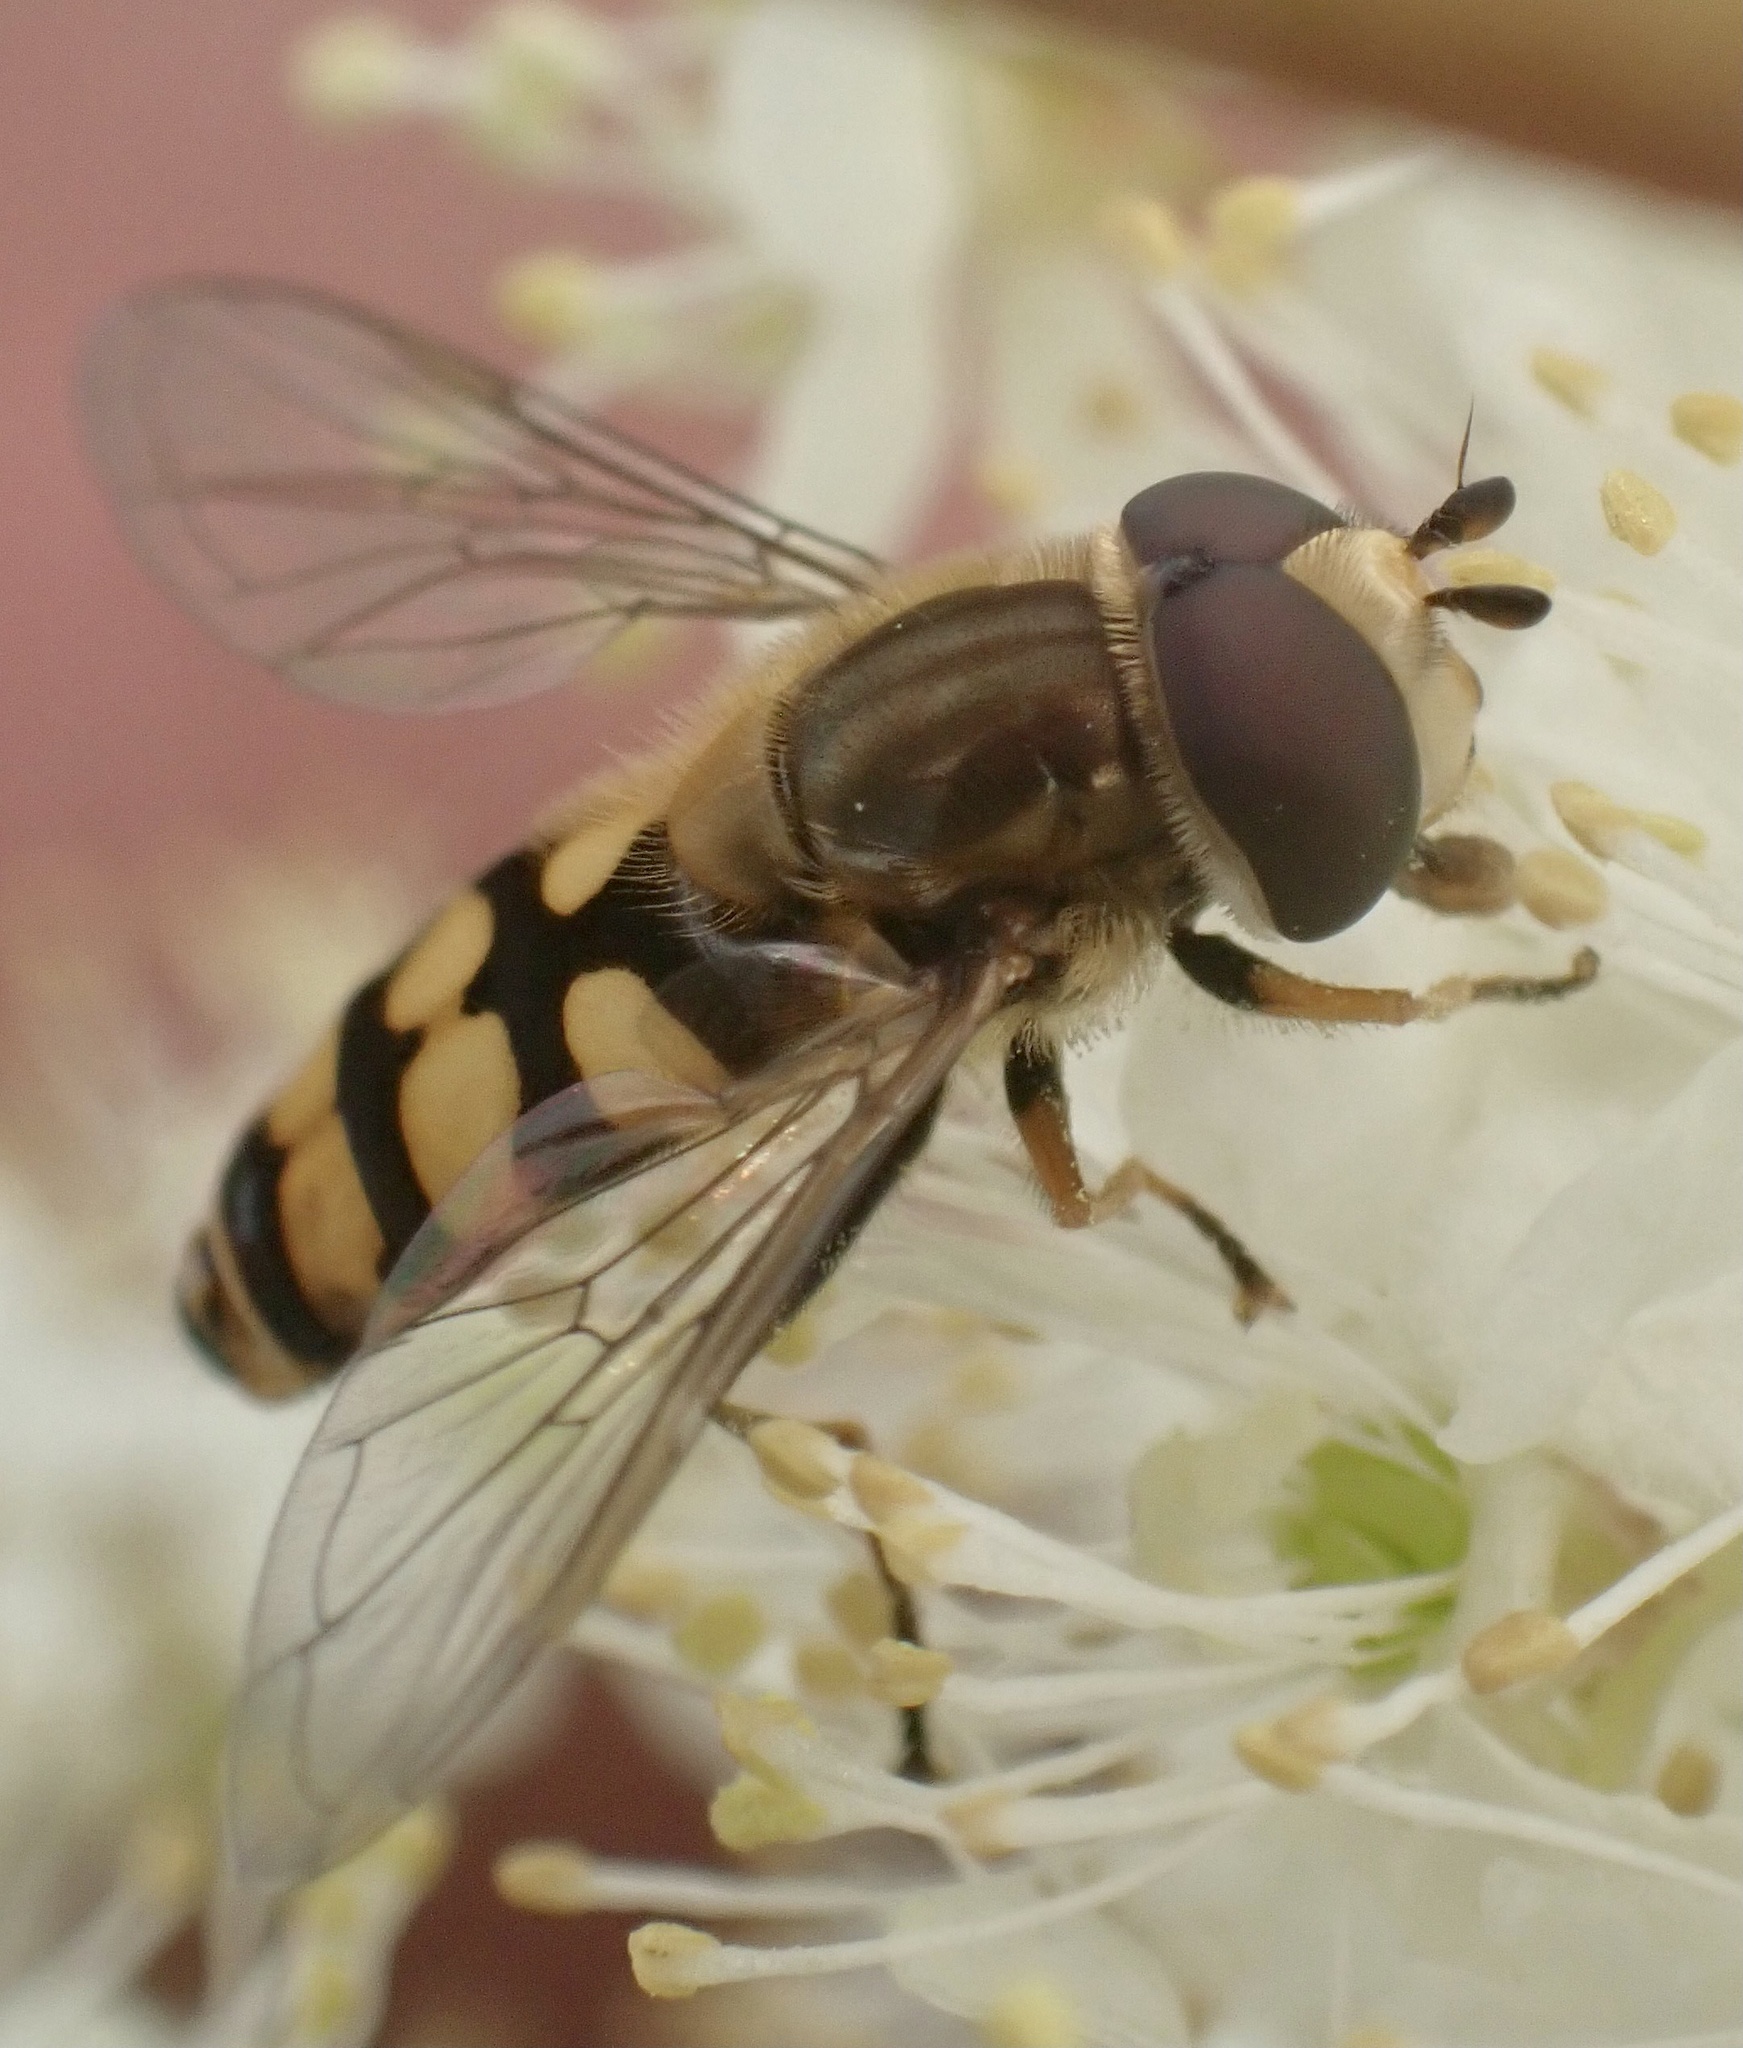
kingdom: Animalia
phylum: Arthropoda
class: Insecta
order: Diptera
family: Syrphidae
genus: Eupeodes
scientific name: Eupeodes corollae
